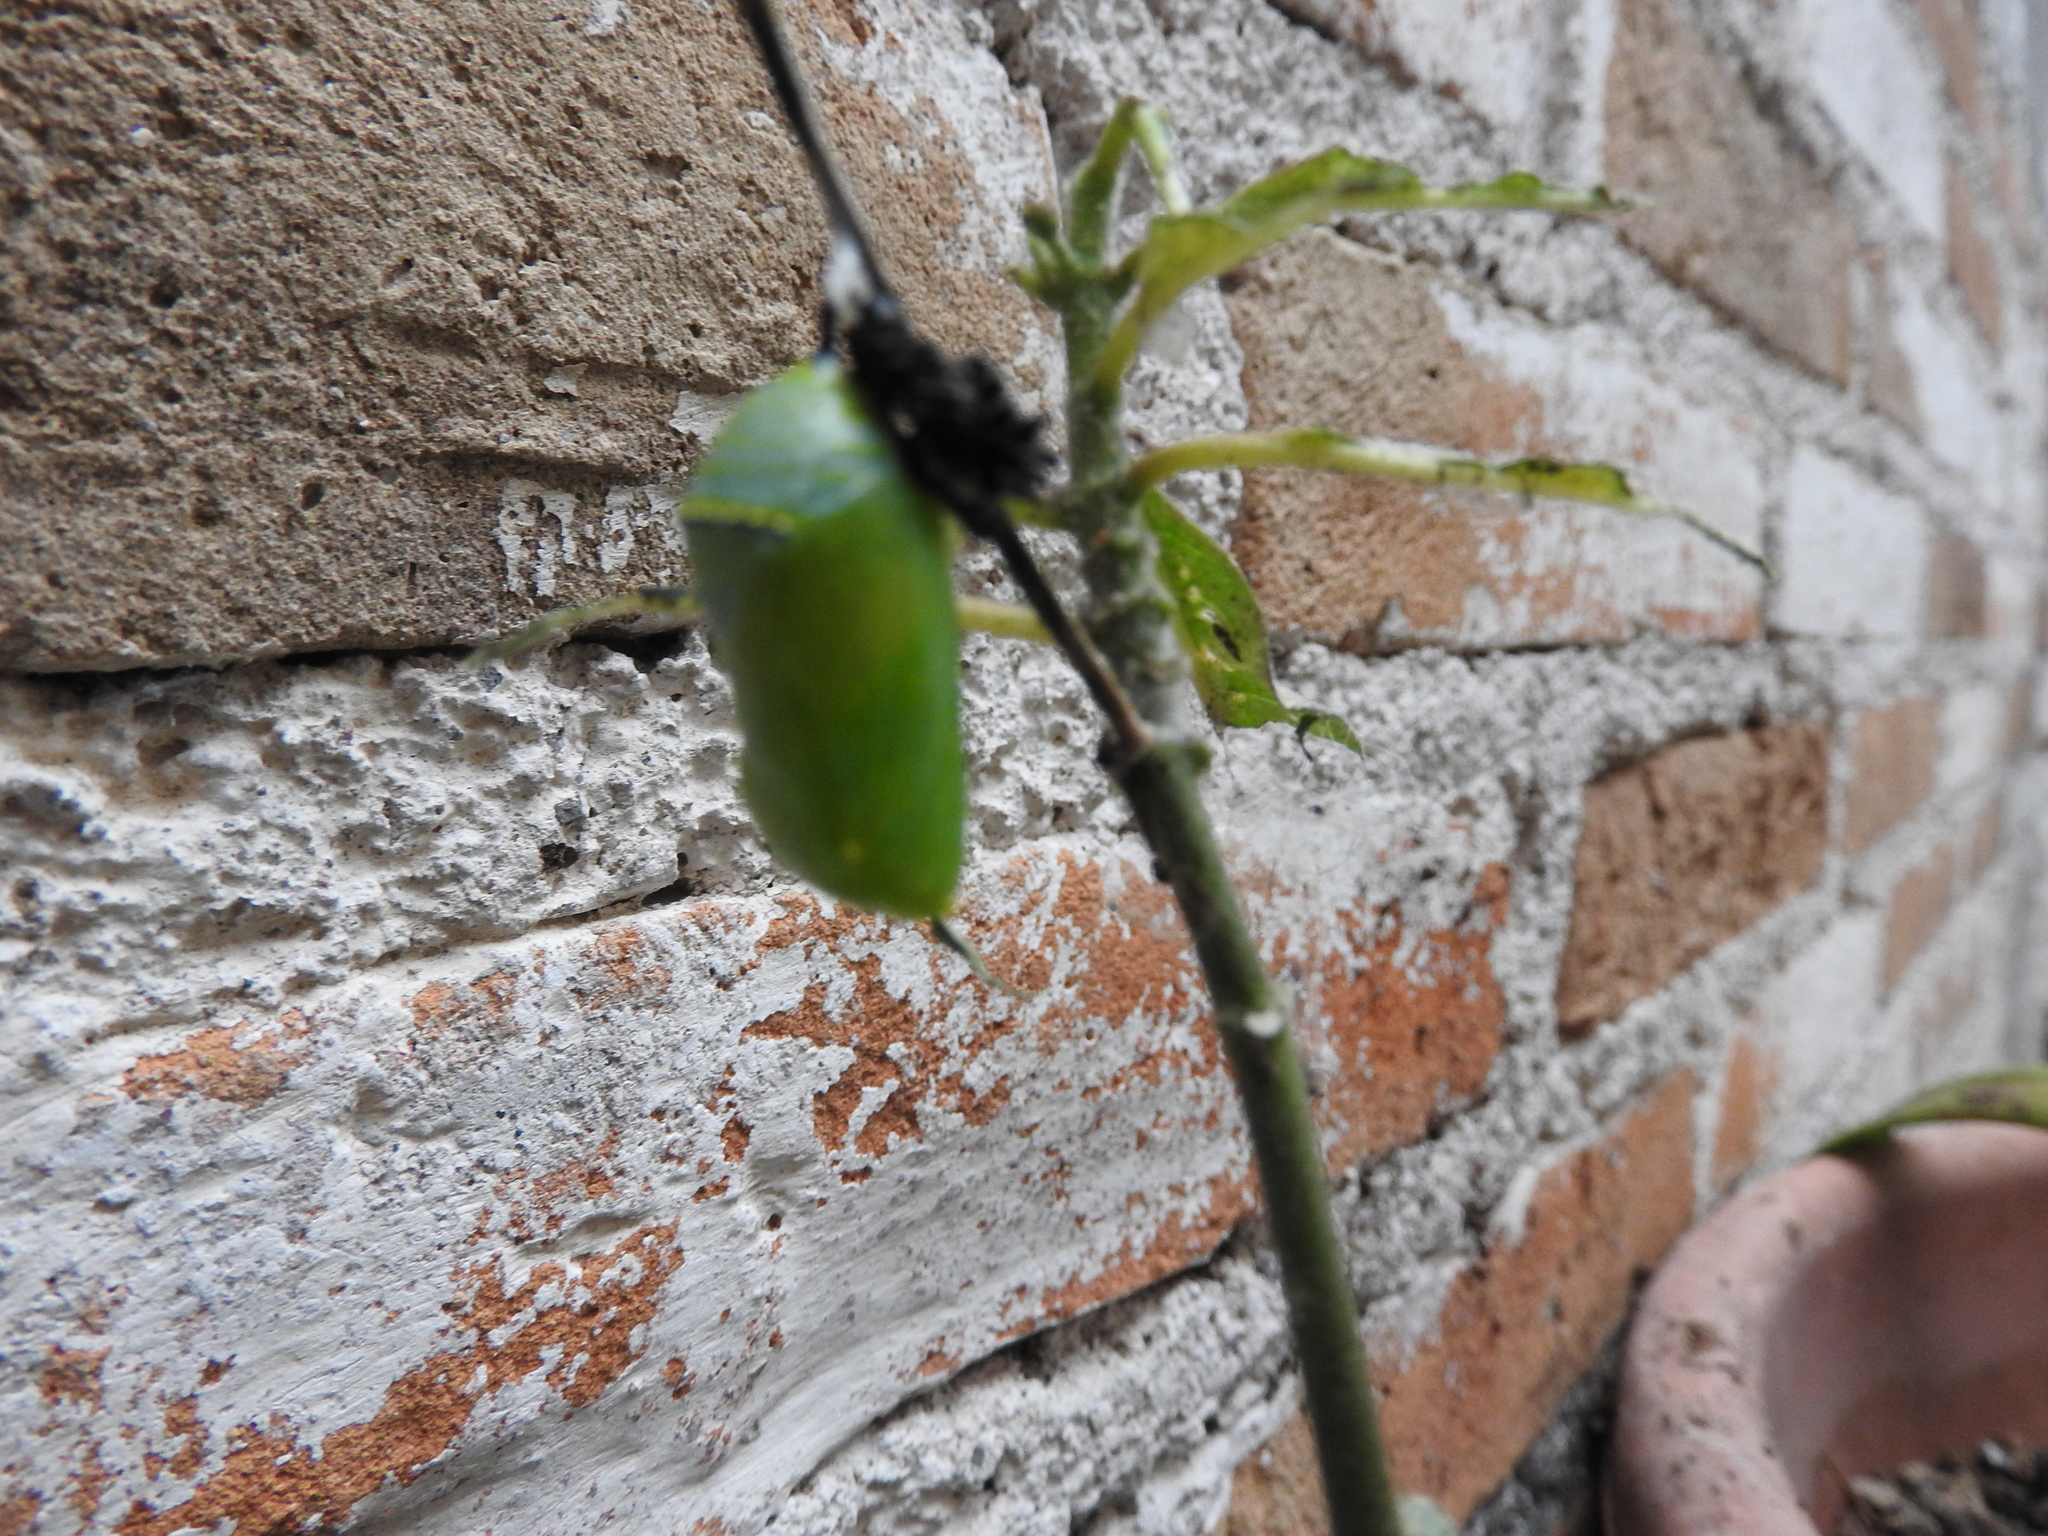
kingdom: Animalia
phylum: Arthropoda
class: Insecta
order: Lepidoptera
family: Nymphalidae
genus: Danaus
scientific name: Danaus plexippus
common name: Monarch
